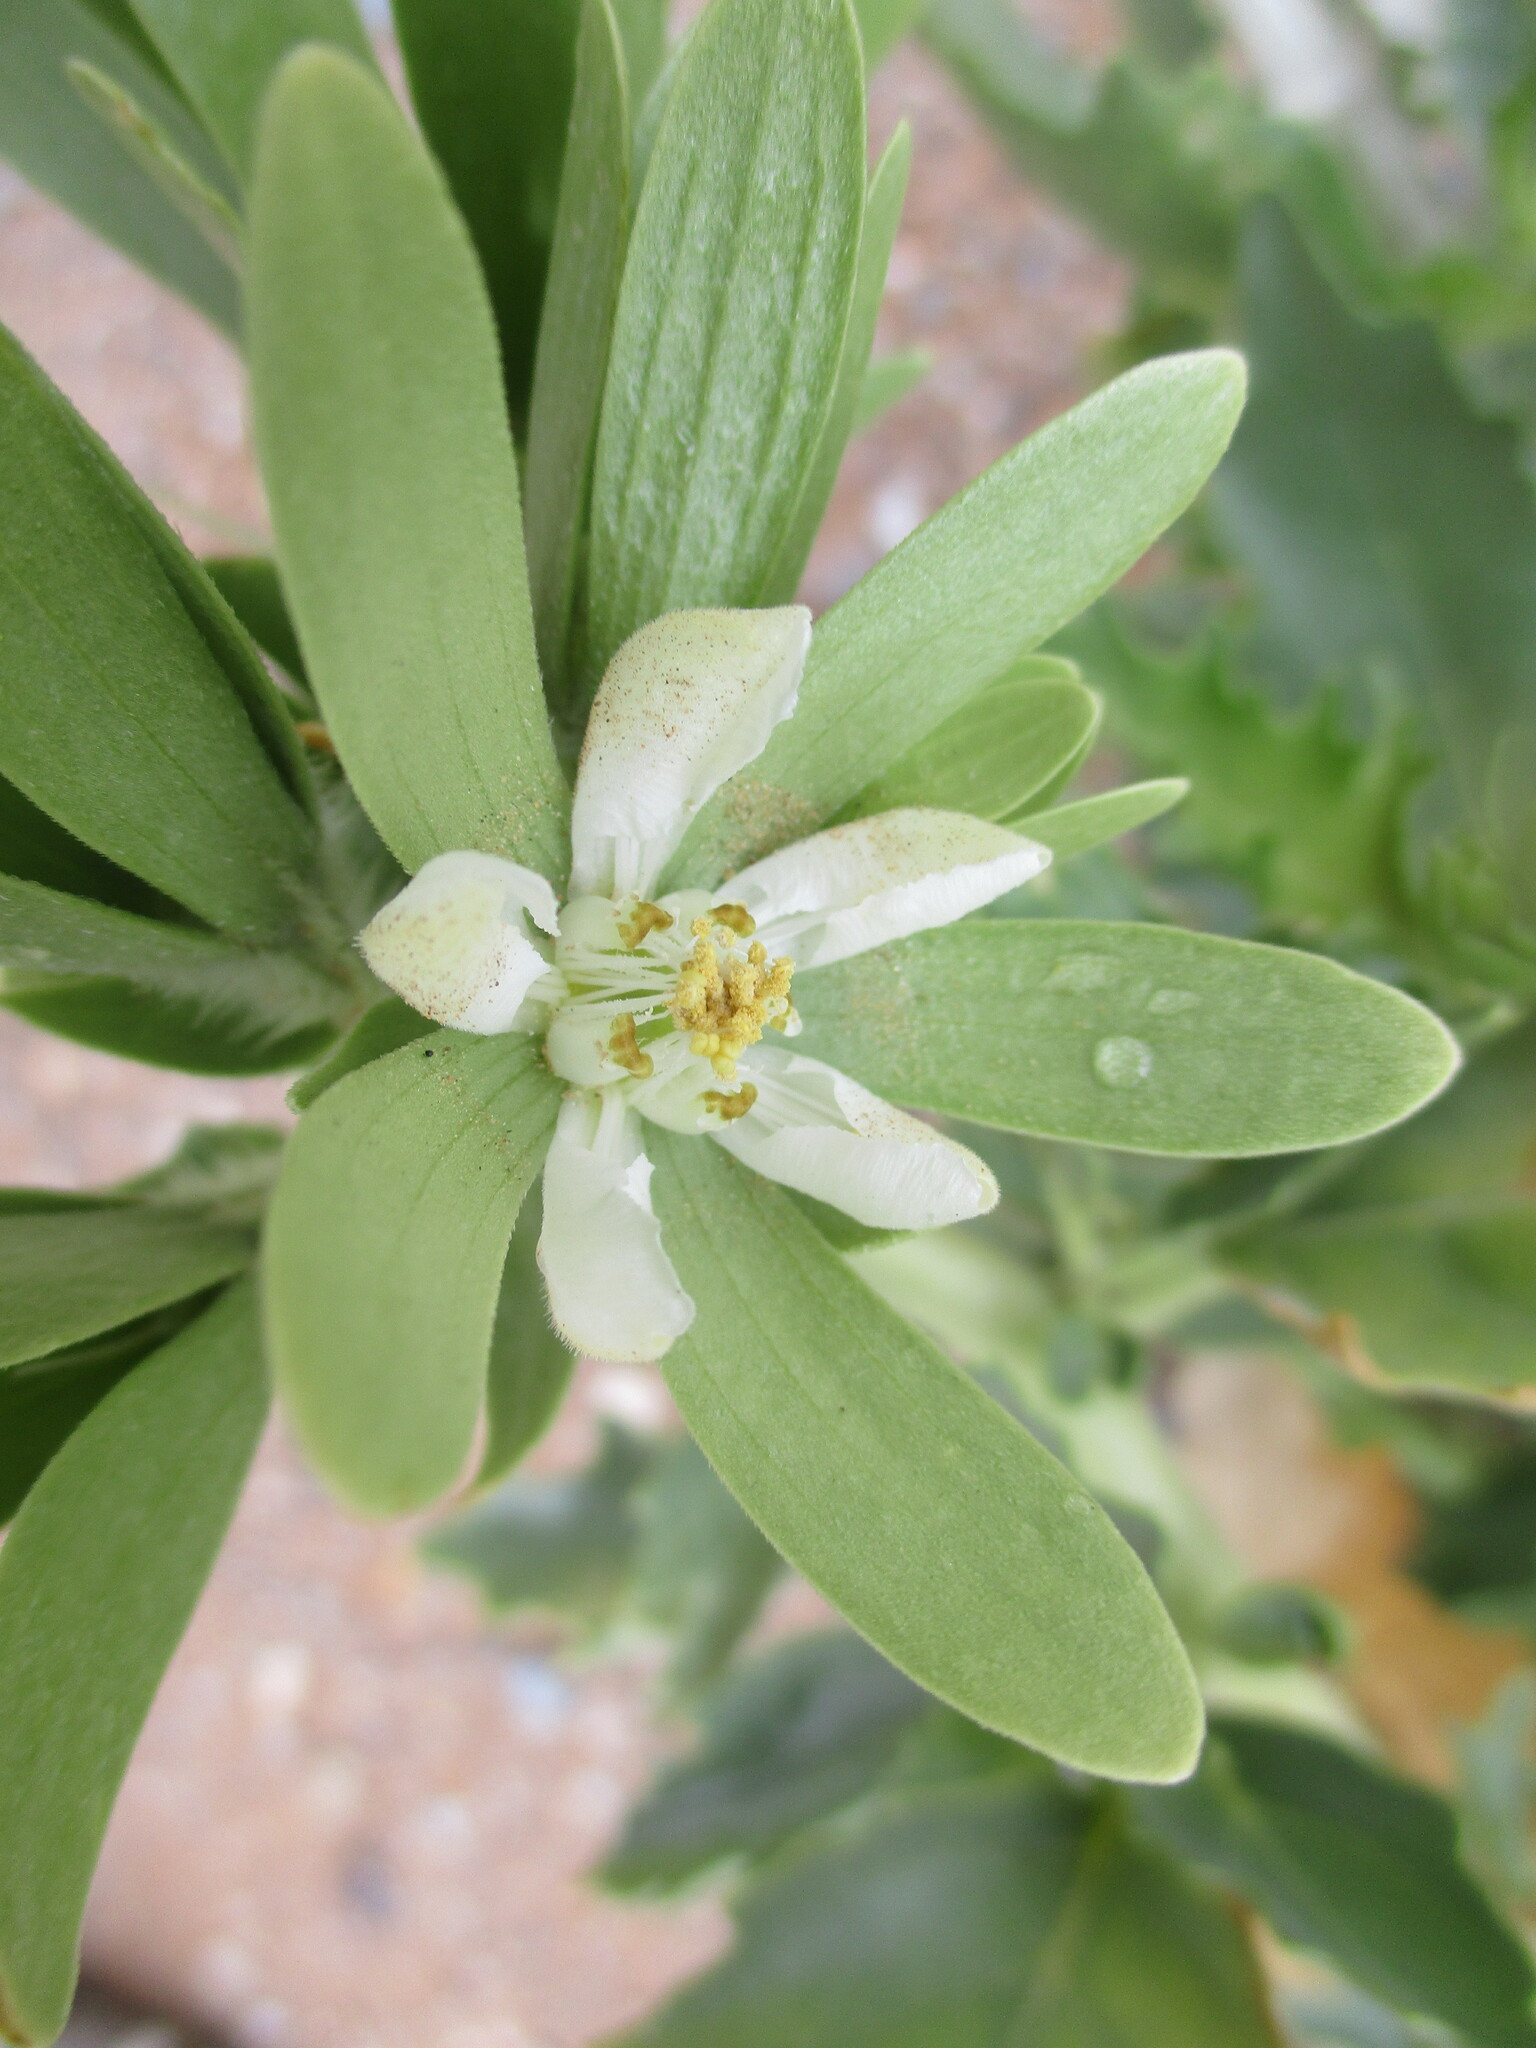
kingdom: Plantae
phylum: Tracheophyta
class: Magnoliopsida
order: Cornales
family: Loasaceae
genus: Kissenia
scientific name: Kissenia capensis
